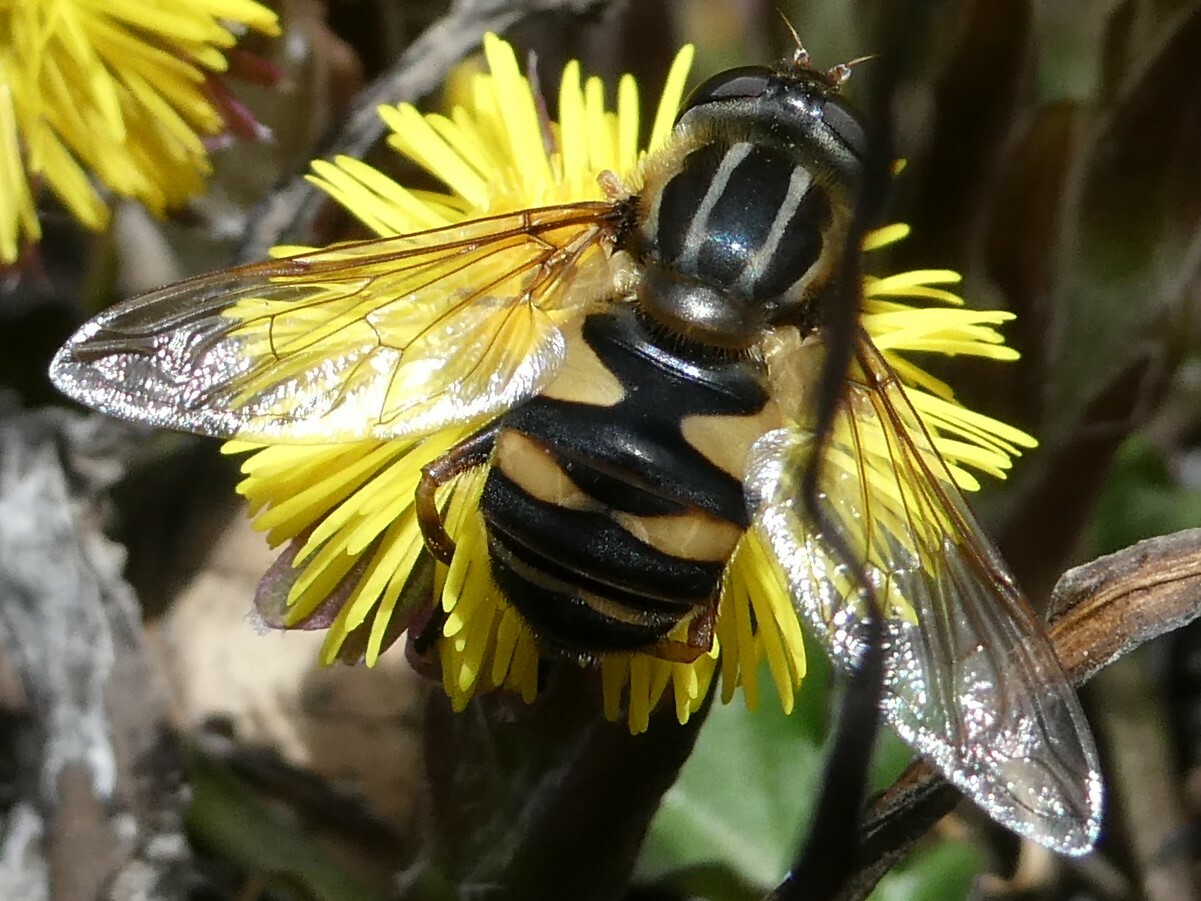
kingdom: Animalia
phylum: Arthropoda
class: Insecta
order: Diptera
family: Syrphidae
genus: Helophilus
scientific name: Helophilus fasciatus
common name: Narrow-headed marsh fly
